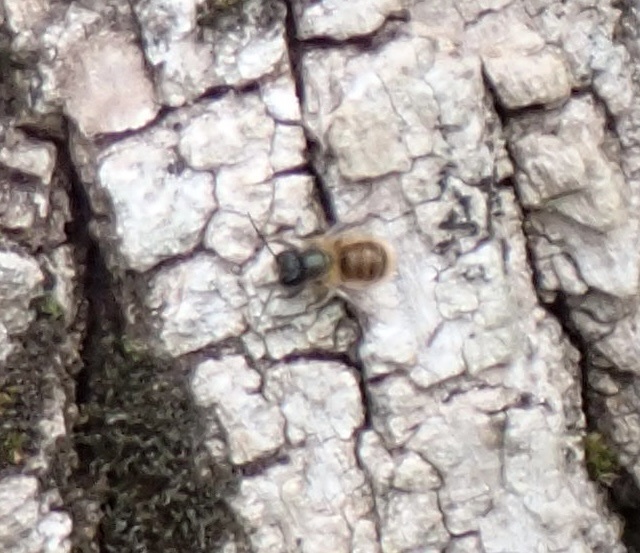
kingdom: Animalia
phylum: Arthropoda
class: Insecta
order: Hymenoptera
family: Megachilidae
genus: Osmia
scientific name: Osmia bicornis
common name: Red mason bee
